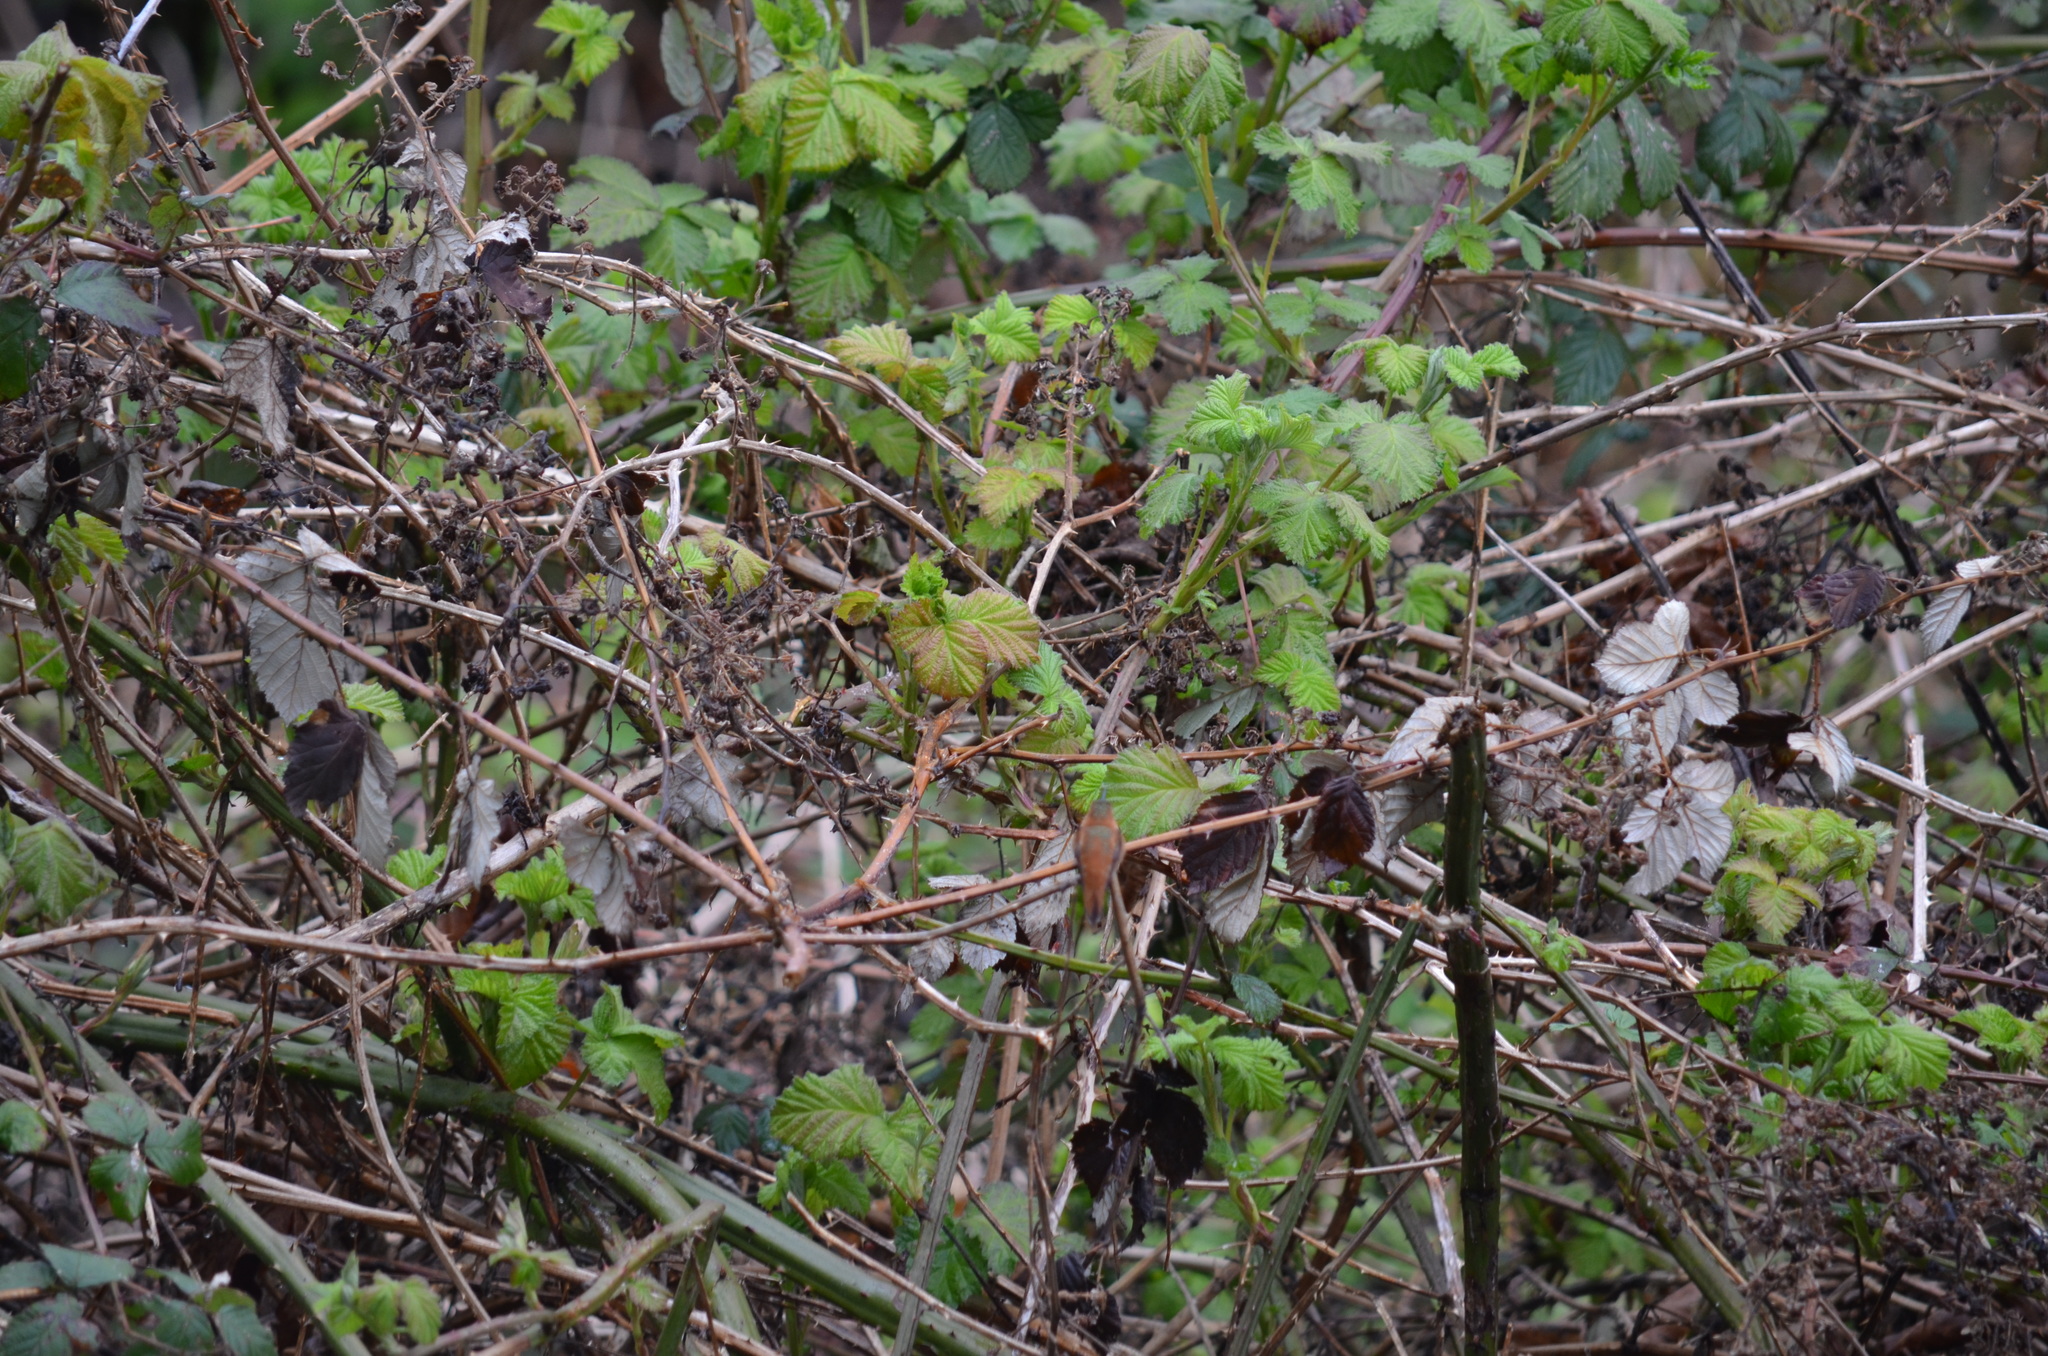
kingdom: Animalia
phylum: Chordata
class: Aves
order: Apodiformes
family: Trochilidae
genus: Selasphorus
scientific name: Selasphorus rufus
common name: Rufous hummingbird
